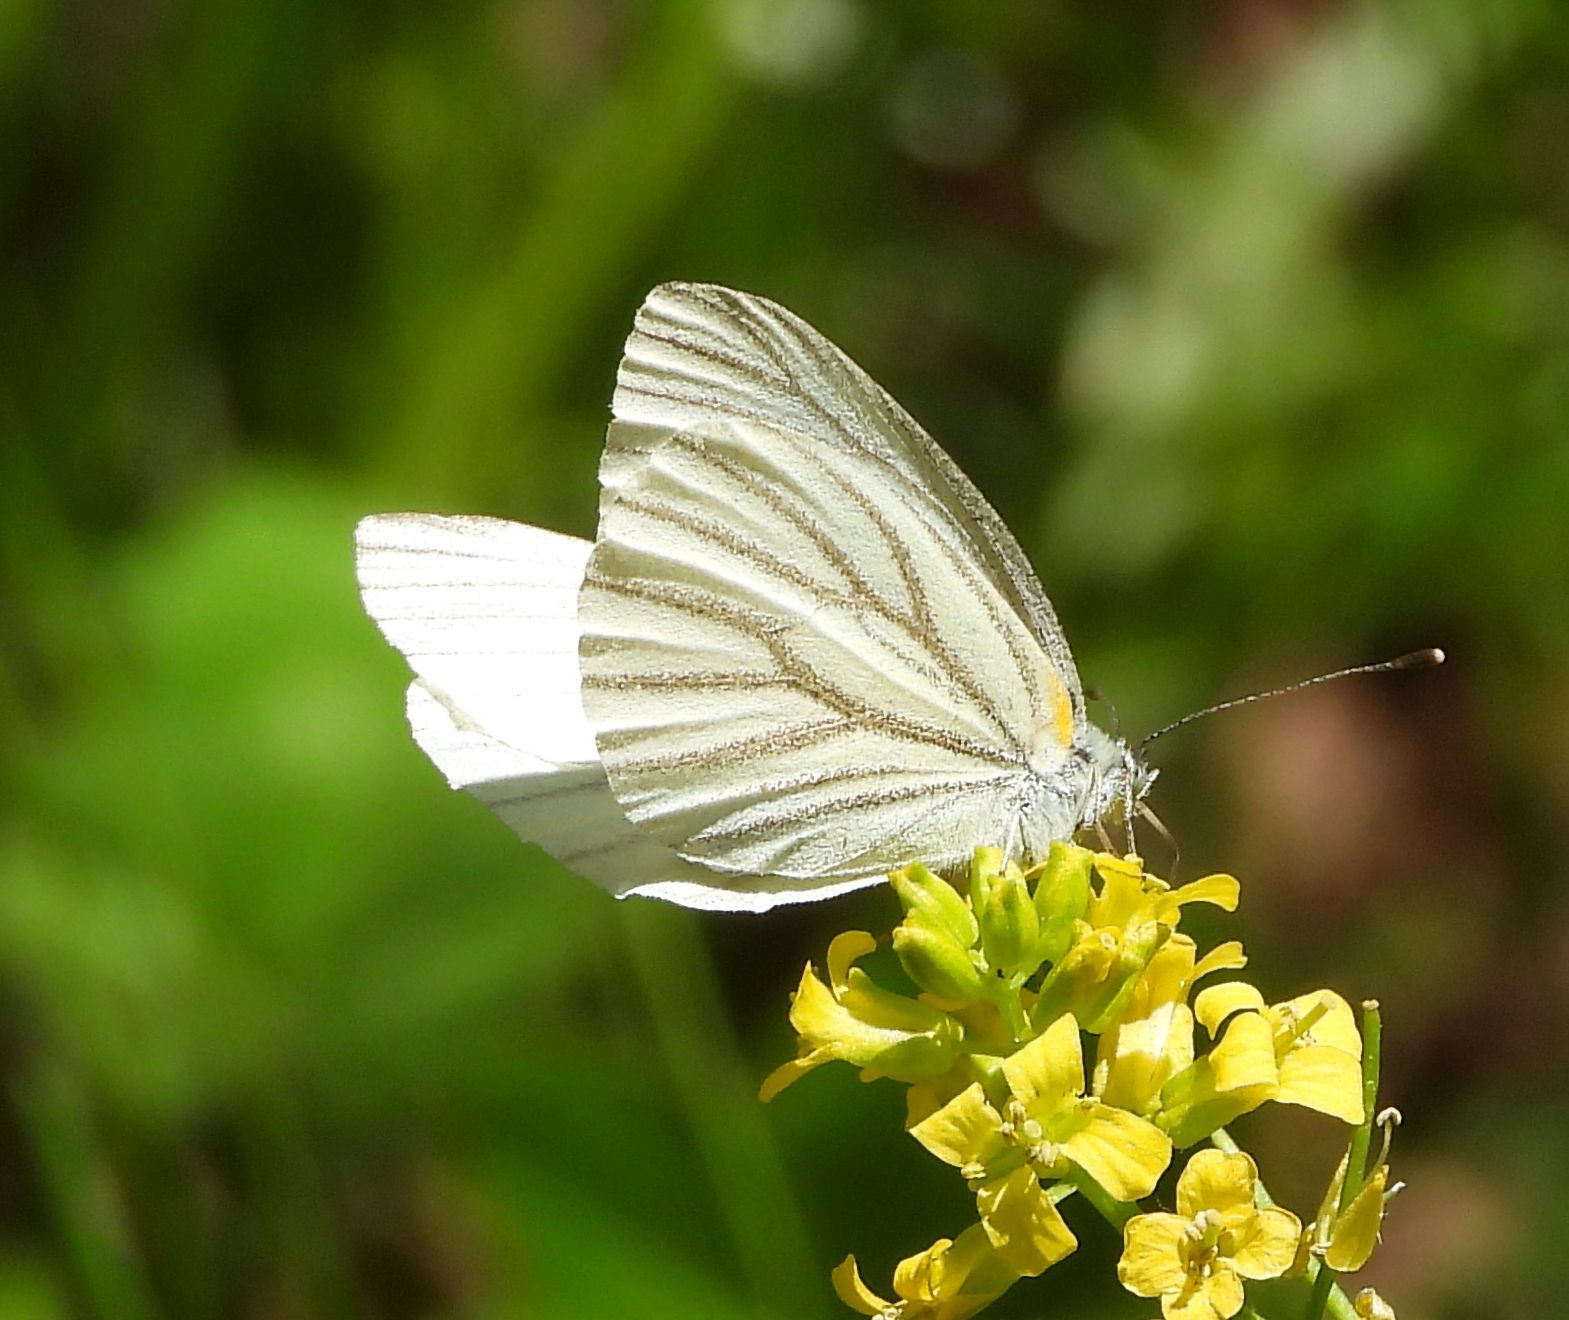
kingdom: Animalia
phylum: Arthropoda
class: Insecta
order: Lepidoptera
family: Pieridae
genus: Pieris
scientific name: Pieris oleracea
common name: Mustard white
